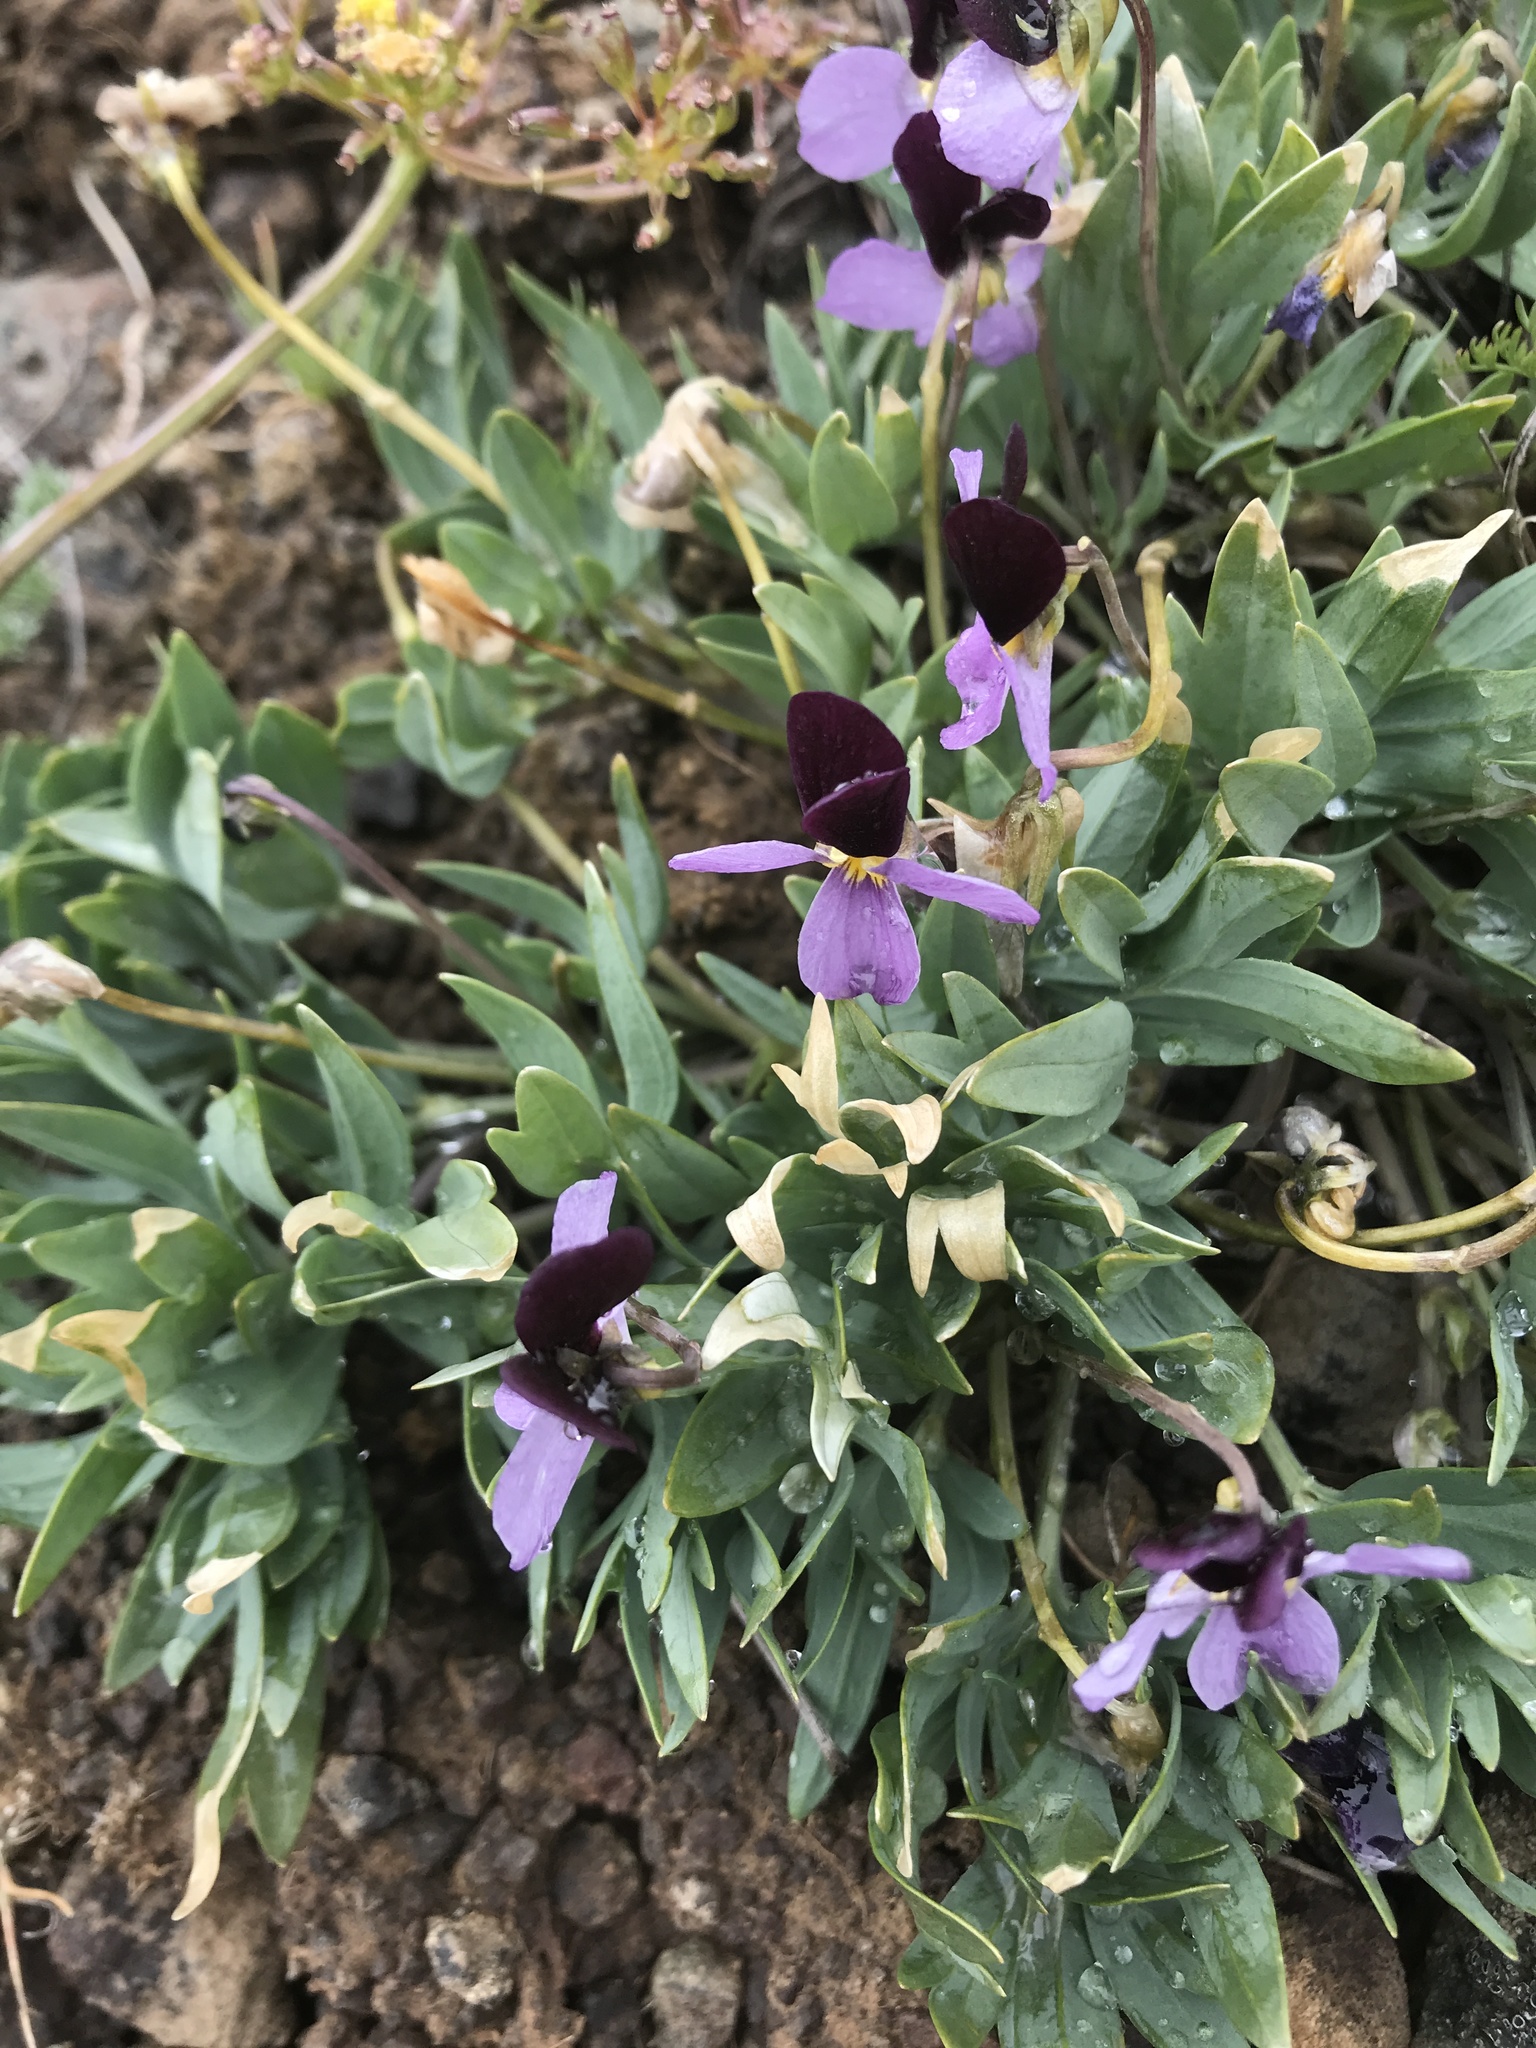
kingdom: Plantae
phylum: Tracheophyta
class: Magnoliopsida
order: Malpighiales
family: Violaceae
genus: Viola
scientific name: Viola trinervata
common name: Sagebrush violet
